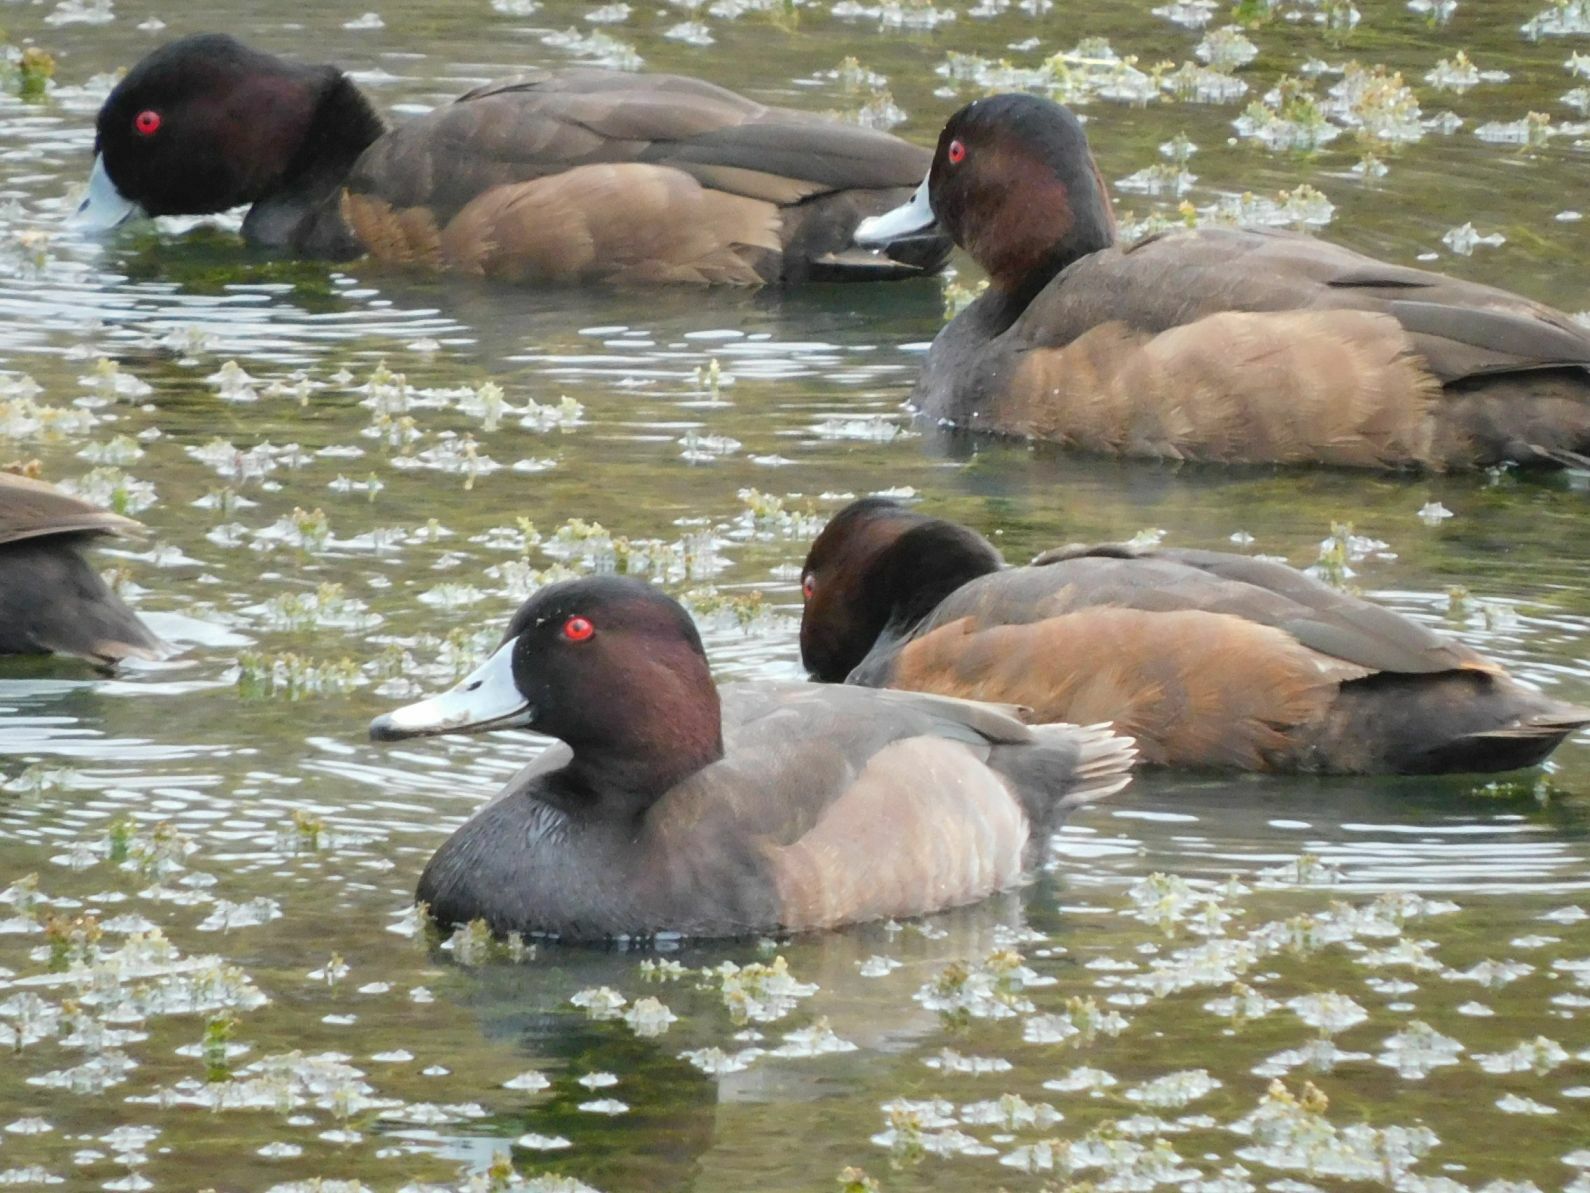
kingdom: Animalia
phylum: Chordata
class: Aves
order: Anseriformes
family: Anatidae
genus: Netta
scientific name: Netta erythrophthalma
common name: Southern pochard
